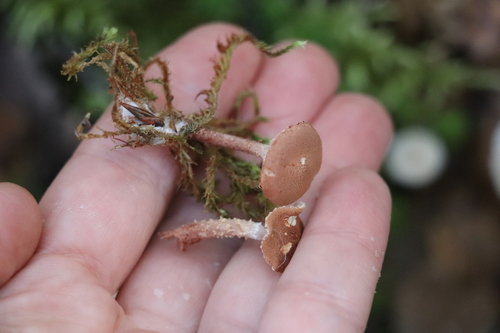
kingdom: Fungi
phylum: Basidiomycota
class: Agaricomycetes
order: Agaricales
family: Agaricaceae
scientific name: Agaricaceae
